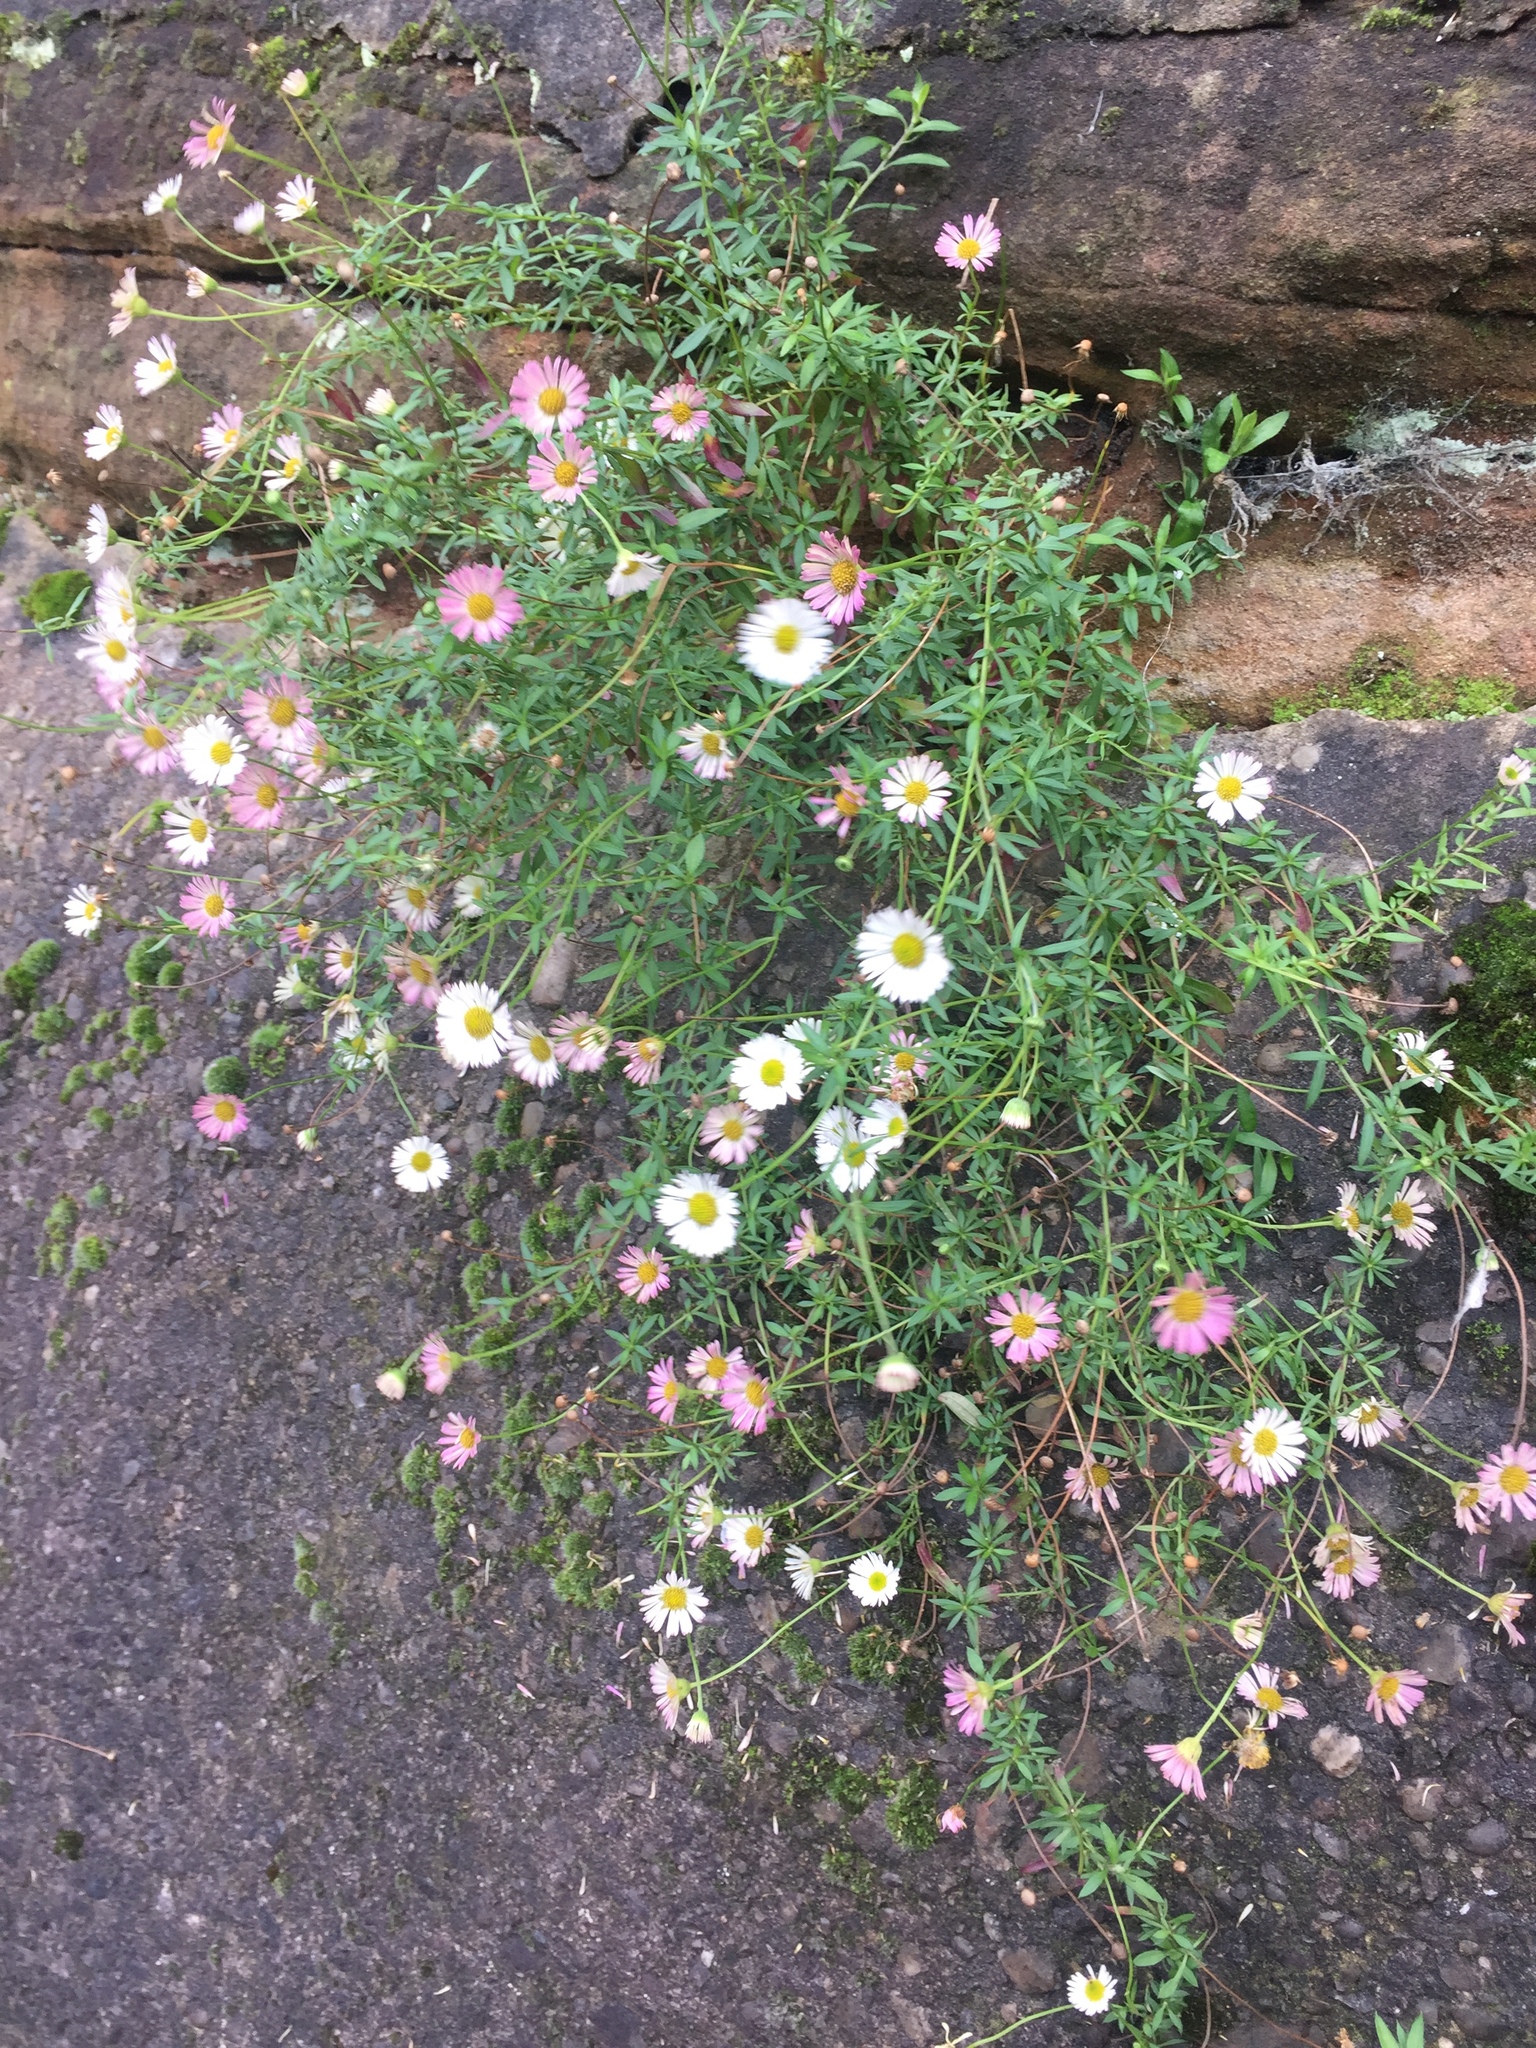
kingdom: Plantae
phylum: Tracheophyta
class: Magnoliopsida
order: Asterales
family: Asteraceae
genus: Erigeron
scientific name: Erigeron karvinskianus
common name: Mexican fleabane
